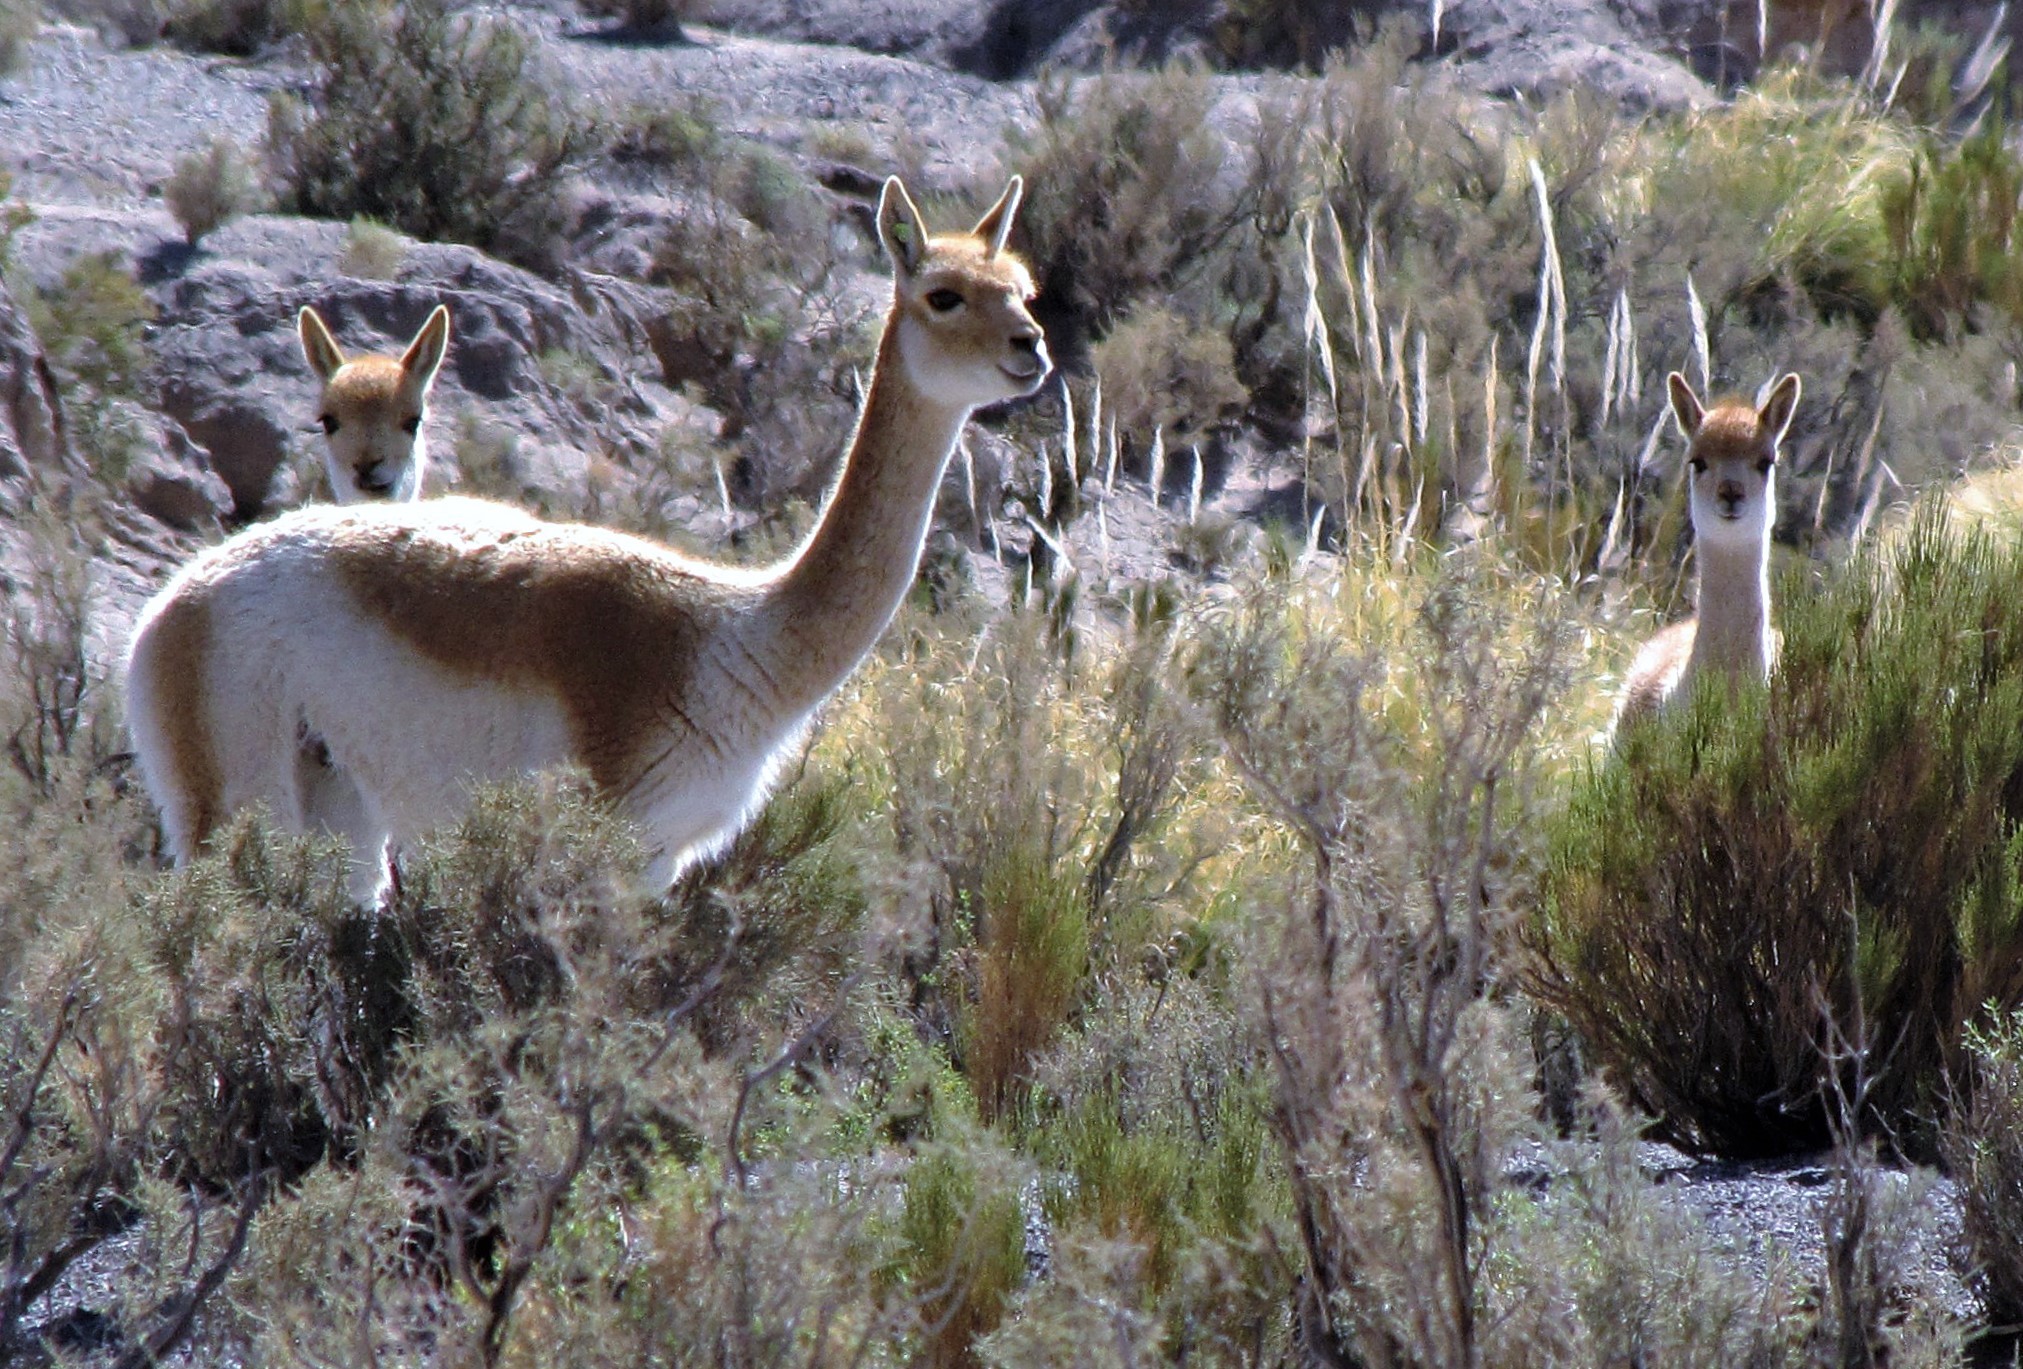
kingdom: Animalia
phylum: Chordata
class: Mammalia
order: Artiodactyla
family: Camelidae
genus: Vicugna
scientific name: Vicugna vicugna
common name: Vicugna
